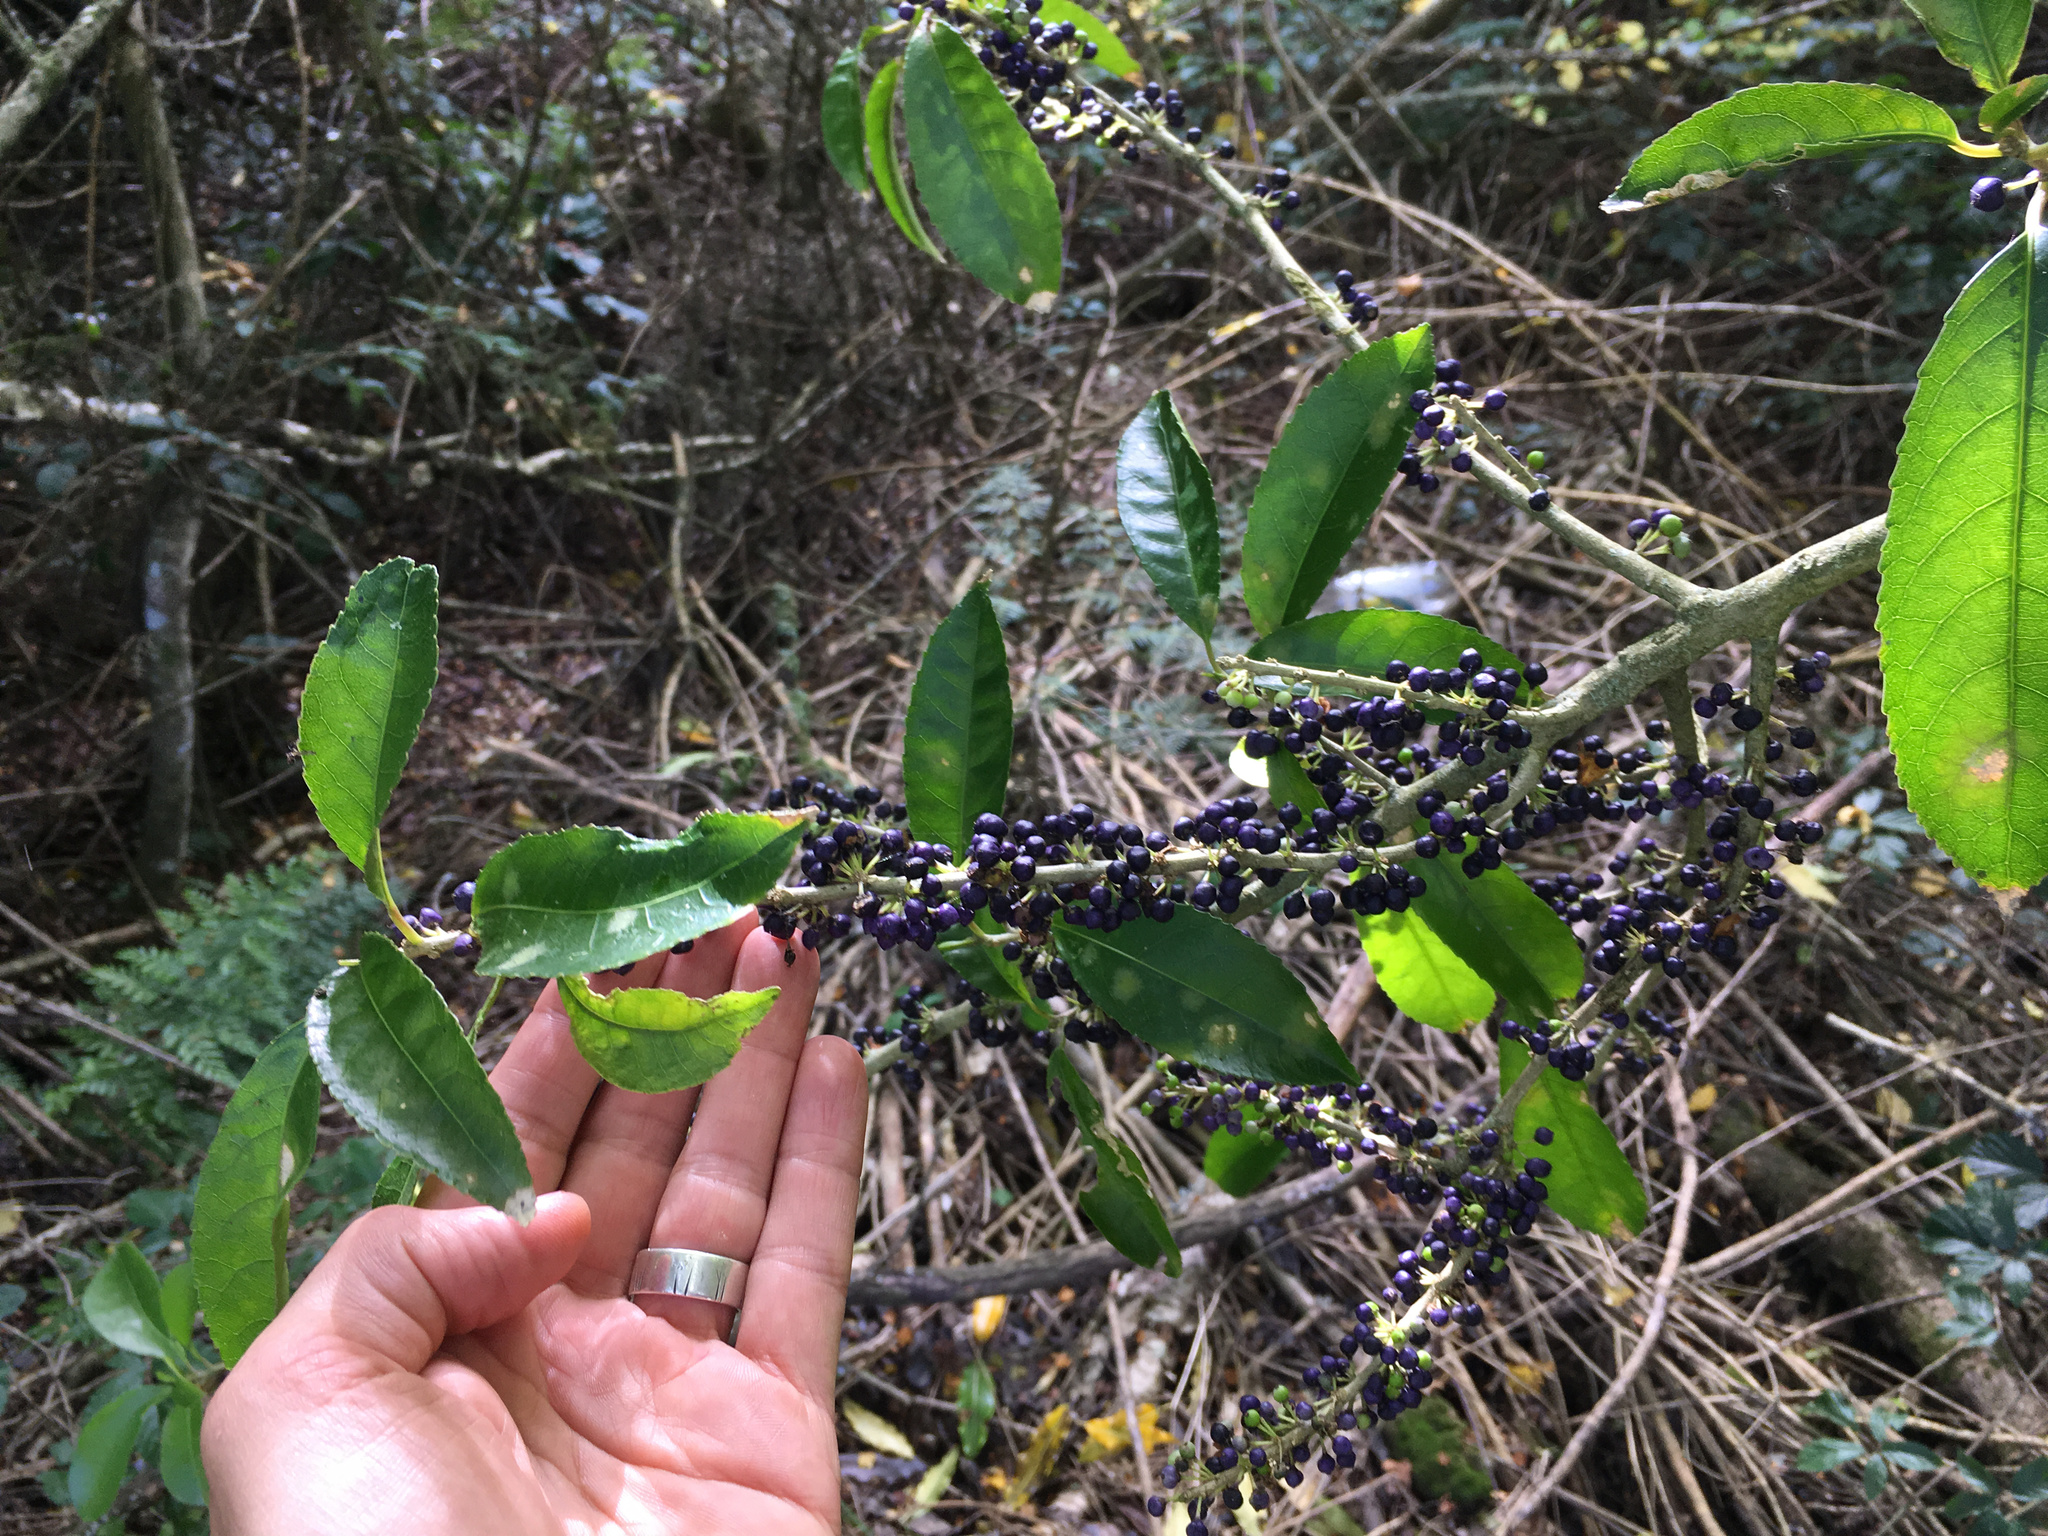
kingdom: Plantae
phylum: Tracheophyta
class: Magnoliopsida
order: Malpighiales
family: Violaceae
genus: Melicytus
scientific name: Melicytus ramiflorus
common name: Mahoe
